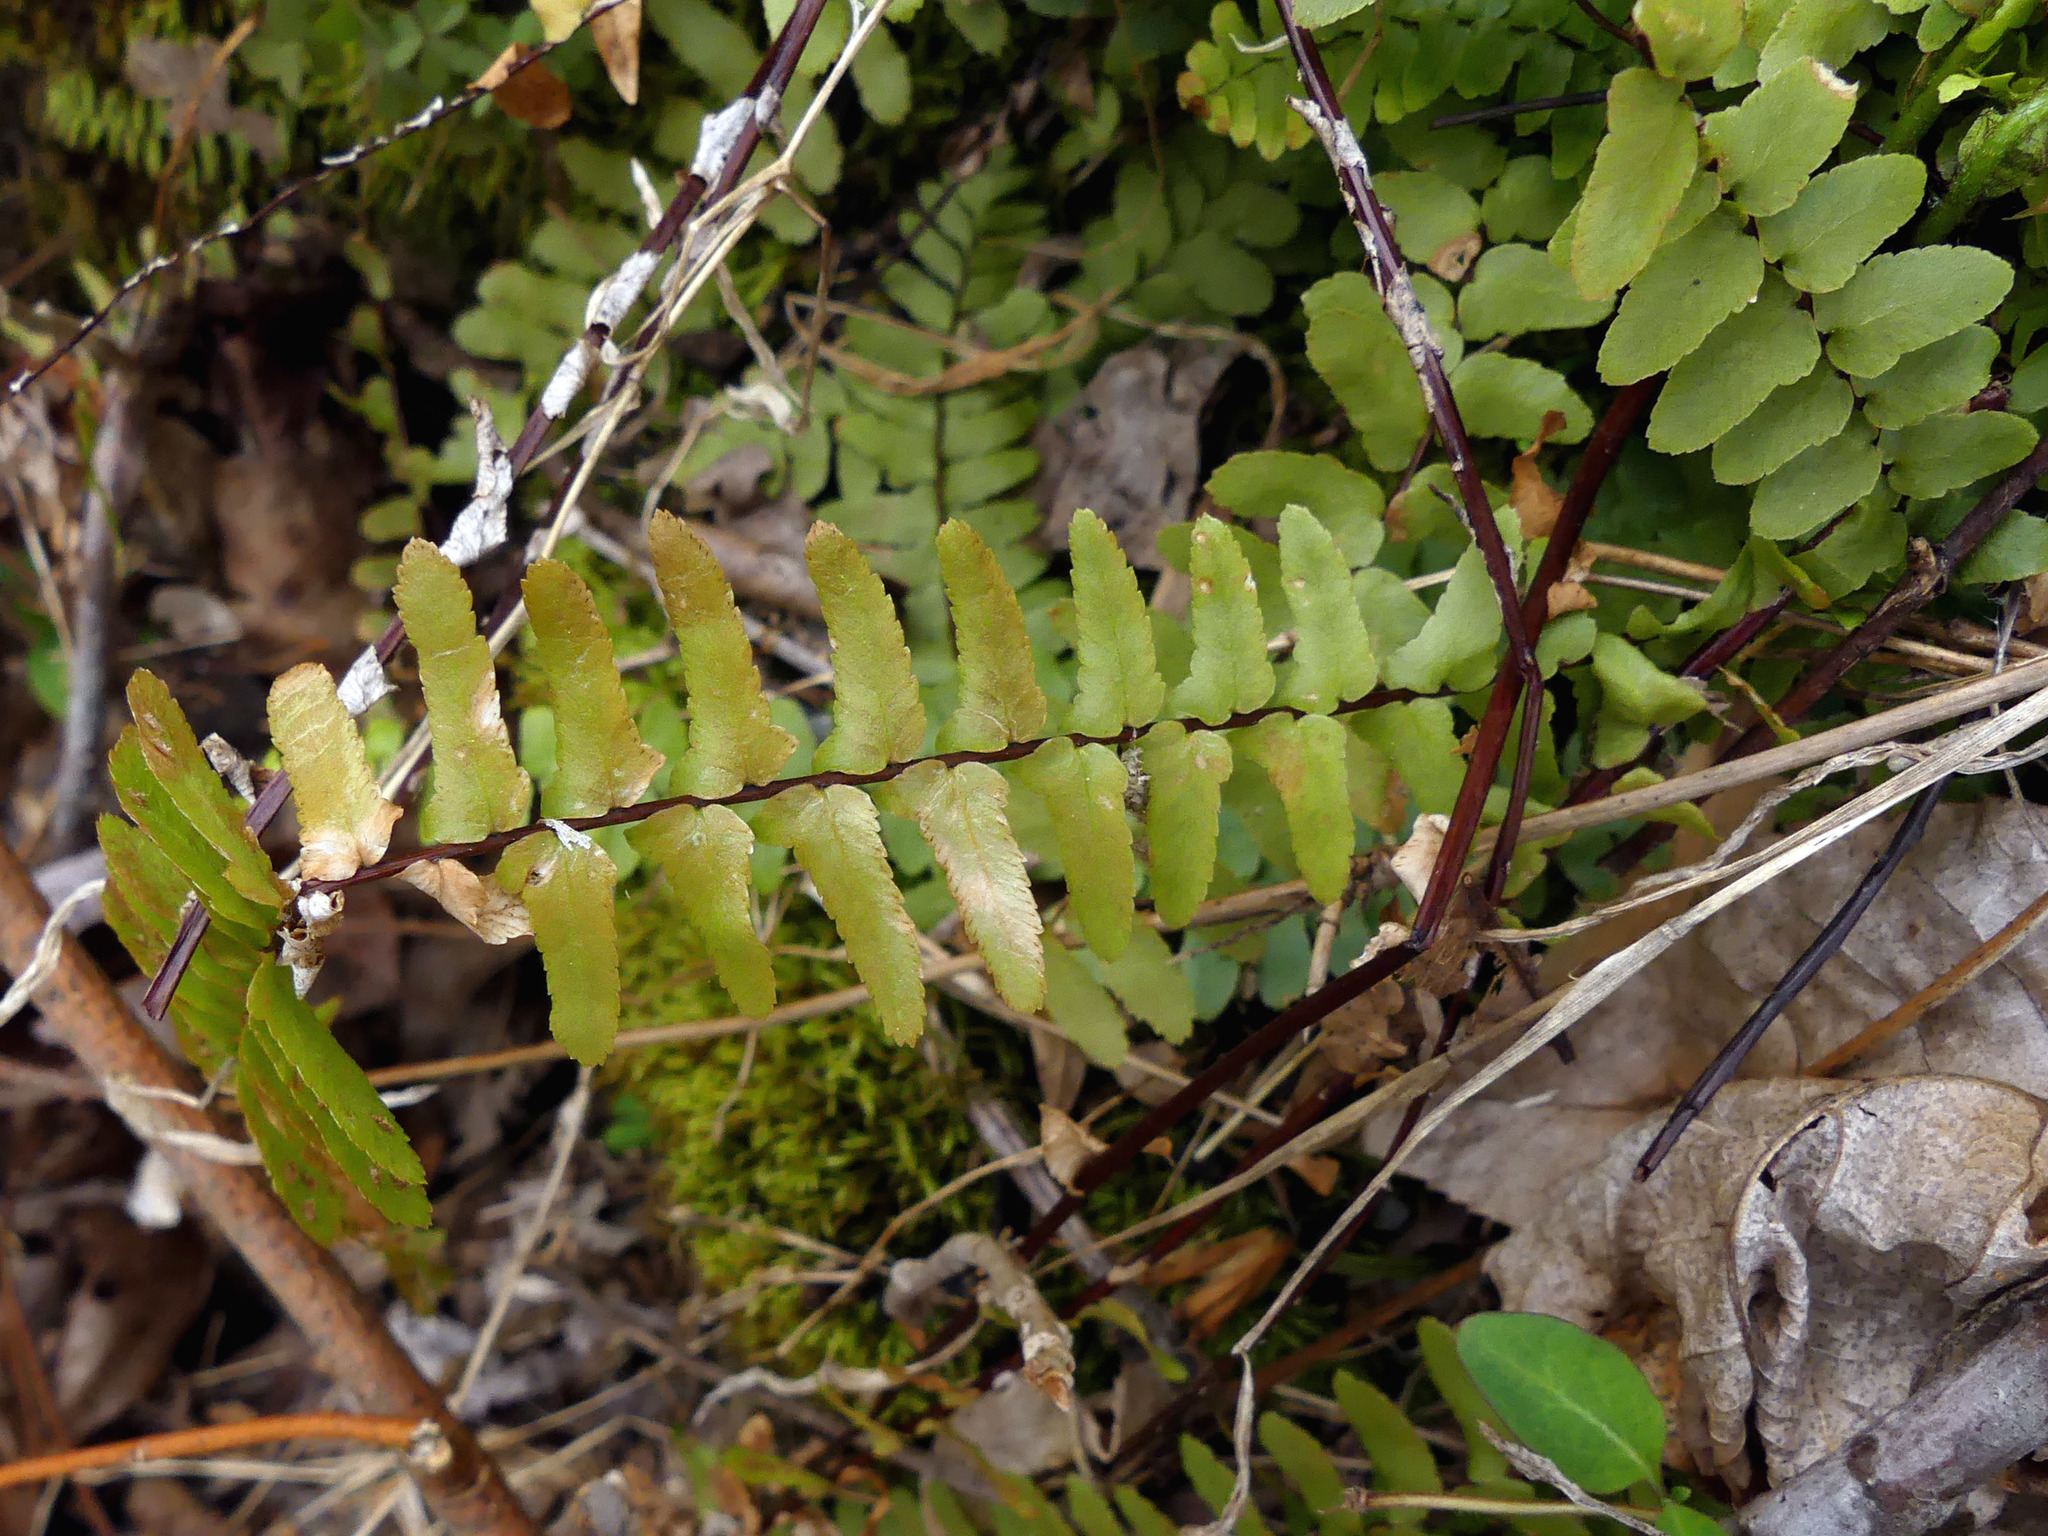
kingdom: Plantae
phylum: Tracheophyta
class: Polypodiopsida
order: Polypodiales
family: Aspleniaceae
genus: Asplenium
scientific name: Asplenium platyneuron
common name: Ebony spleenwort
